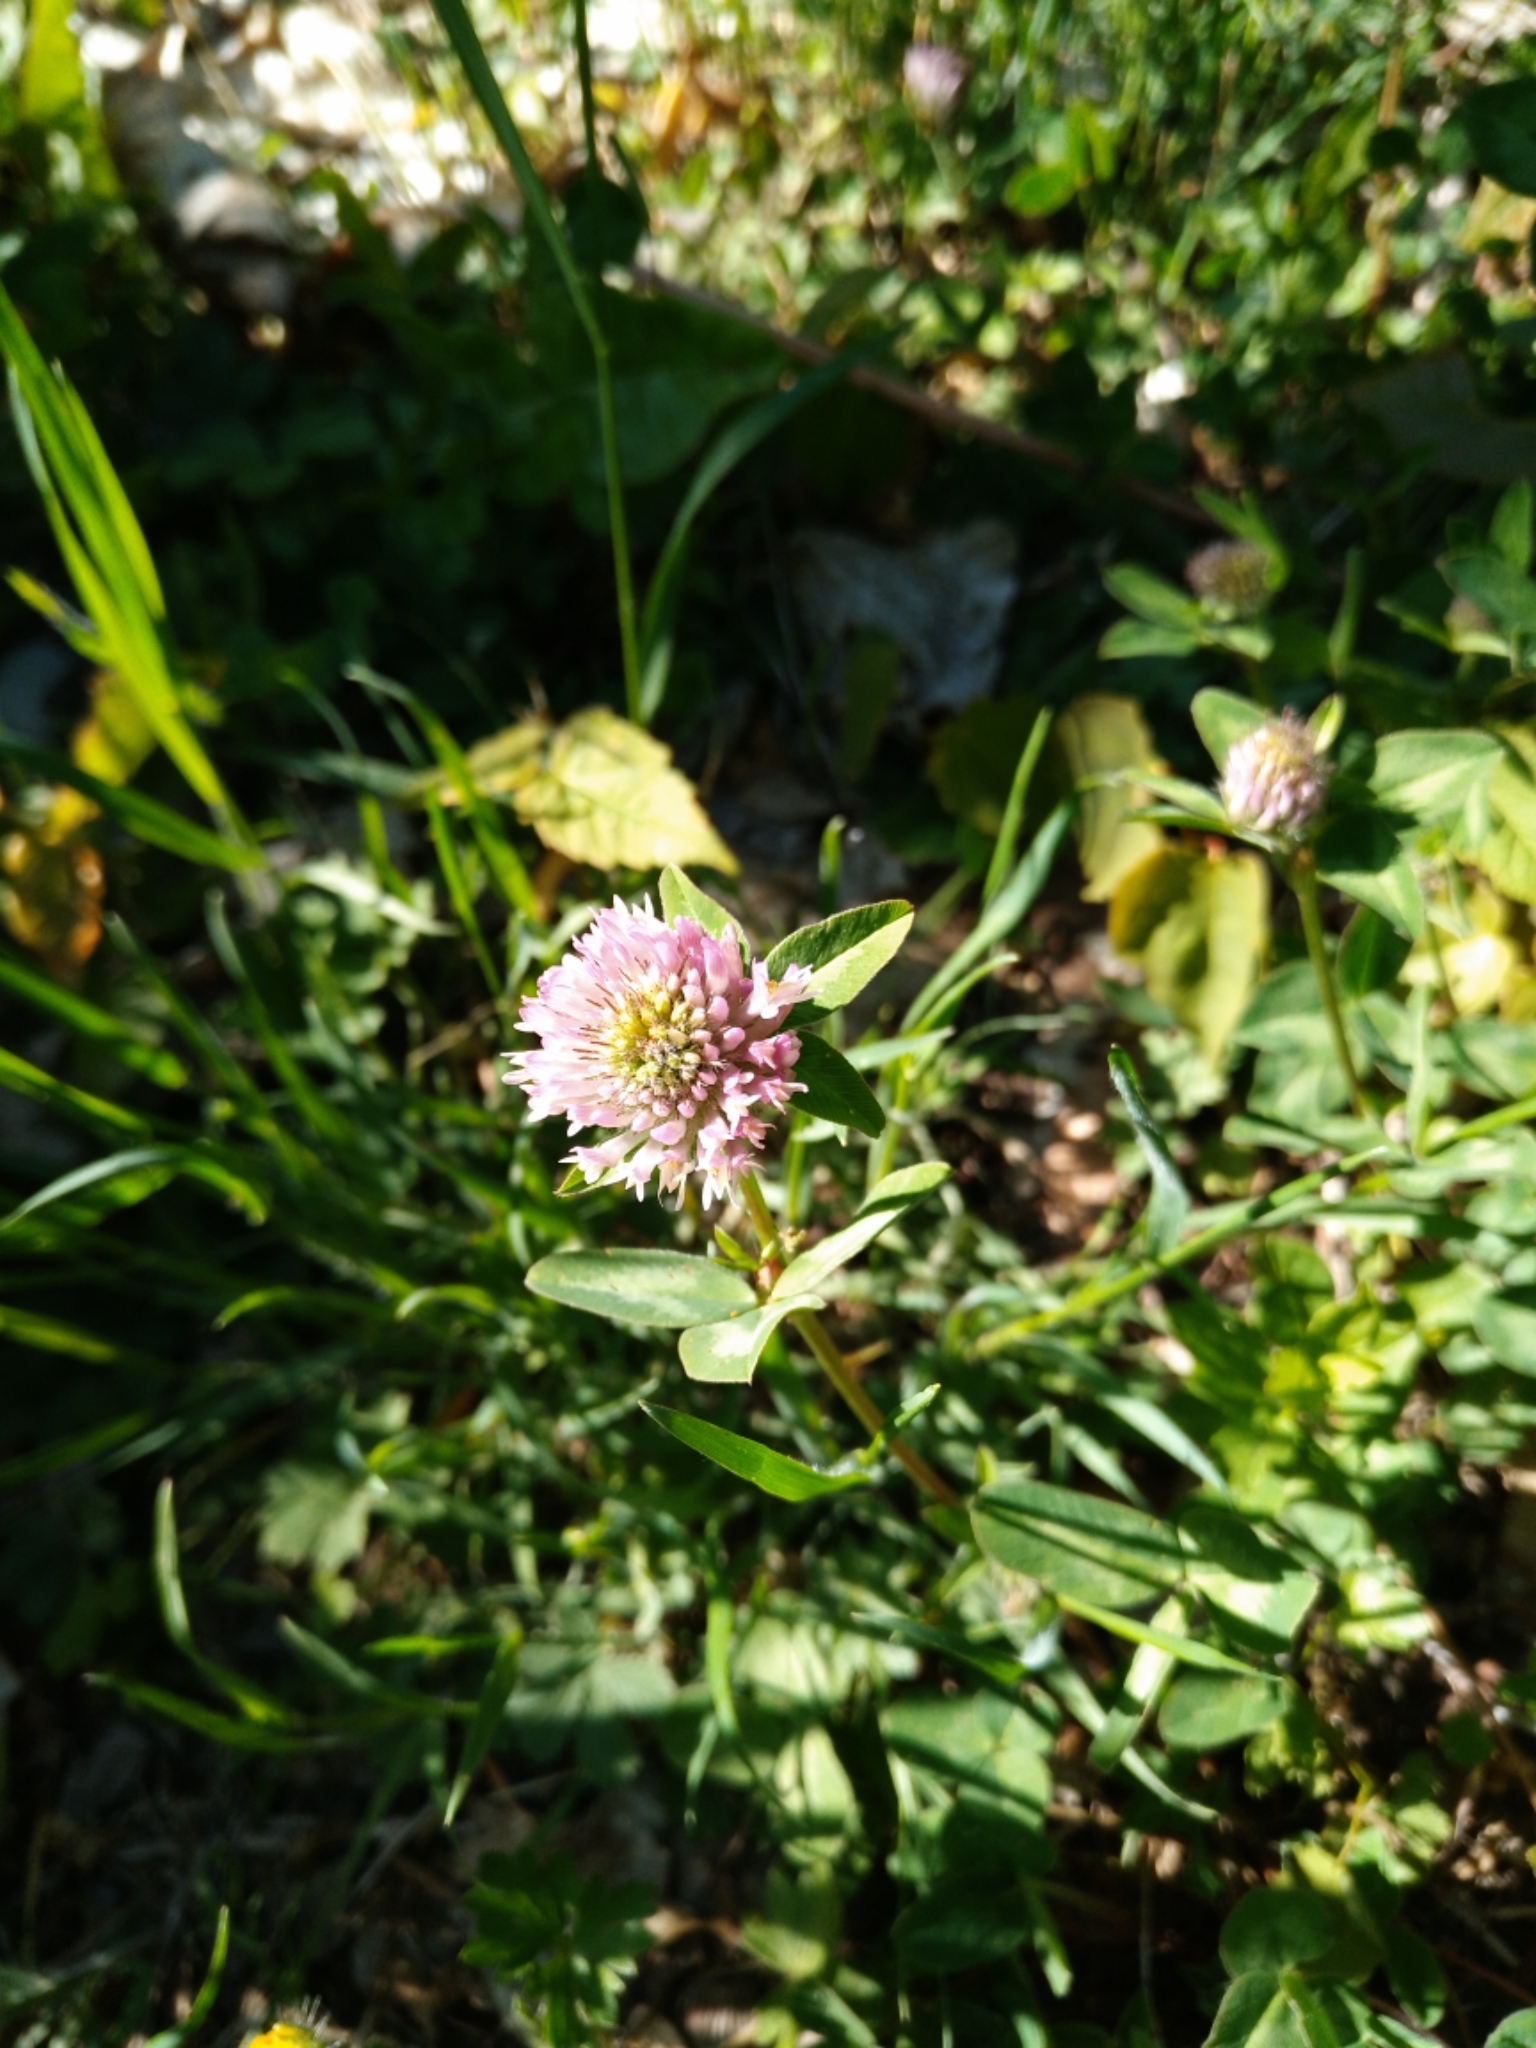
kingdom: Plantae
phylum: Tracheophyta
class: Magnoliopsida
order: Fabales
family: Fabaceae
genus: Trifolium
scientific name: Trifolium pratense
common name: Red clover
